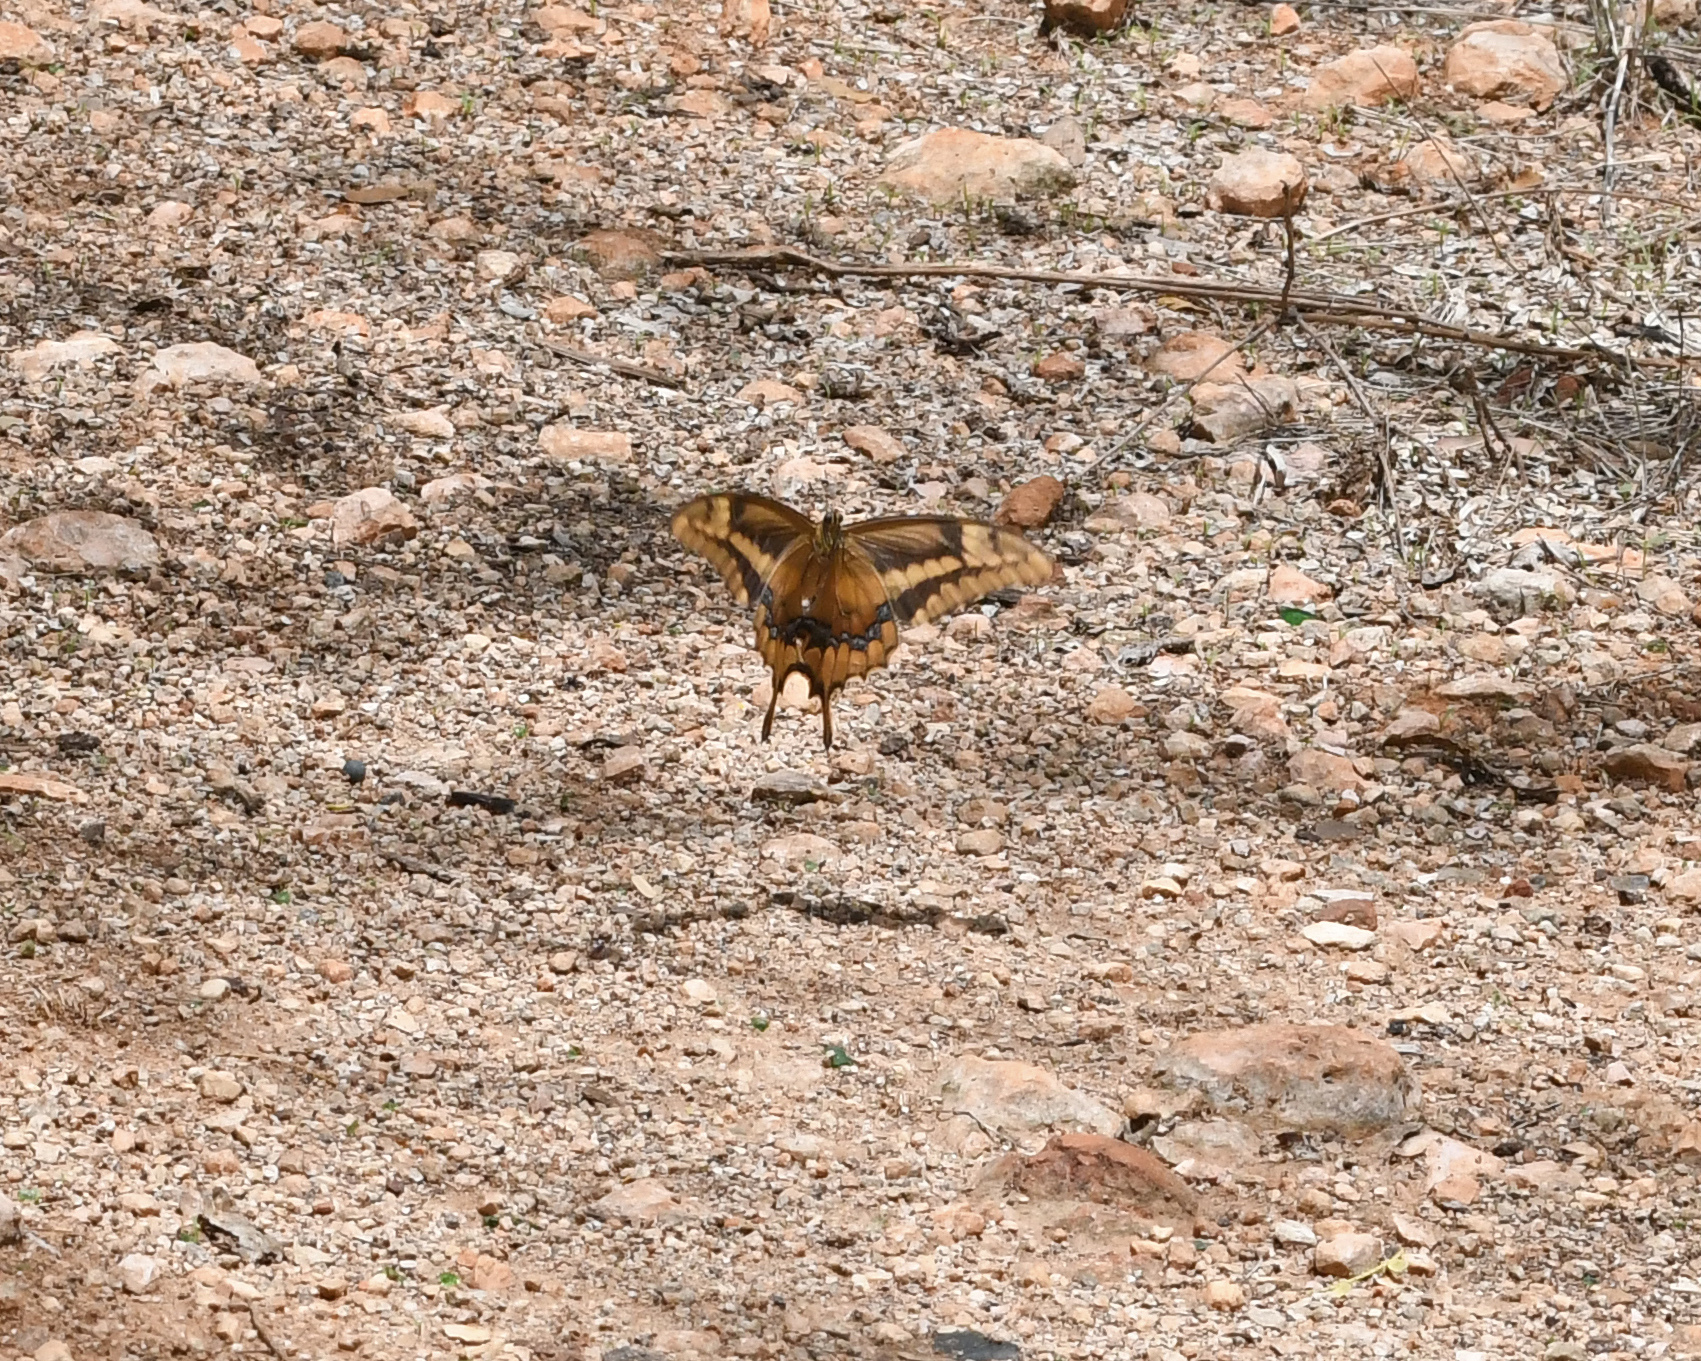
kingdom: Animalia
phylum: Arthropoda
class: Insecta
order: Lepidoptera
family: Papilionidae
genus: Papilio
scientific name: Papilio aristodemus
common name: Schaus' swallowtail
